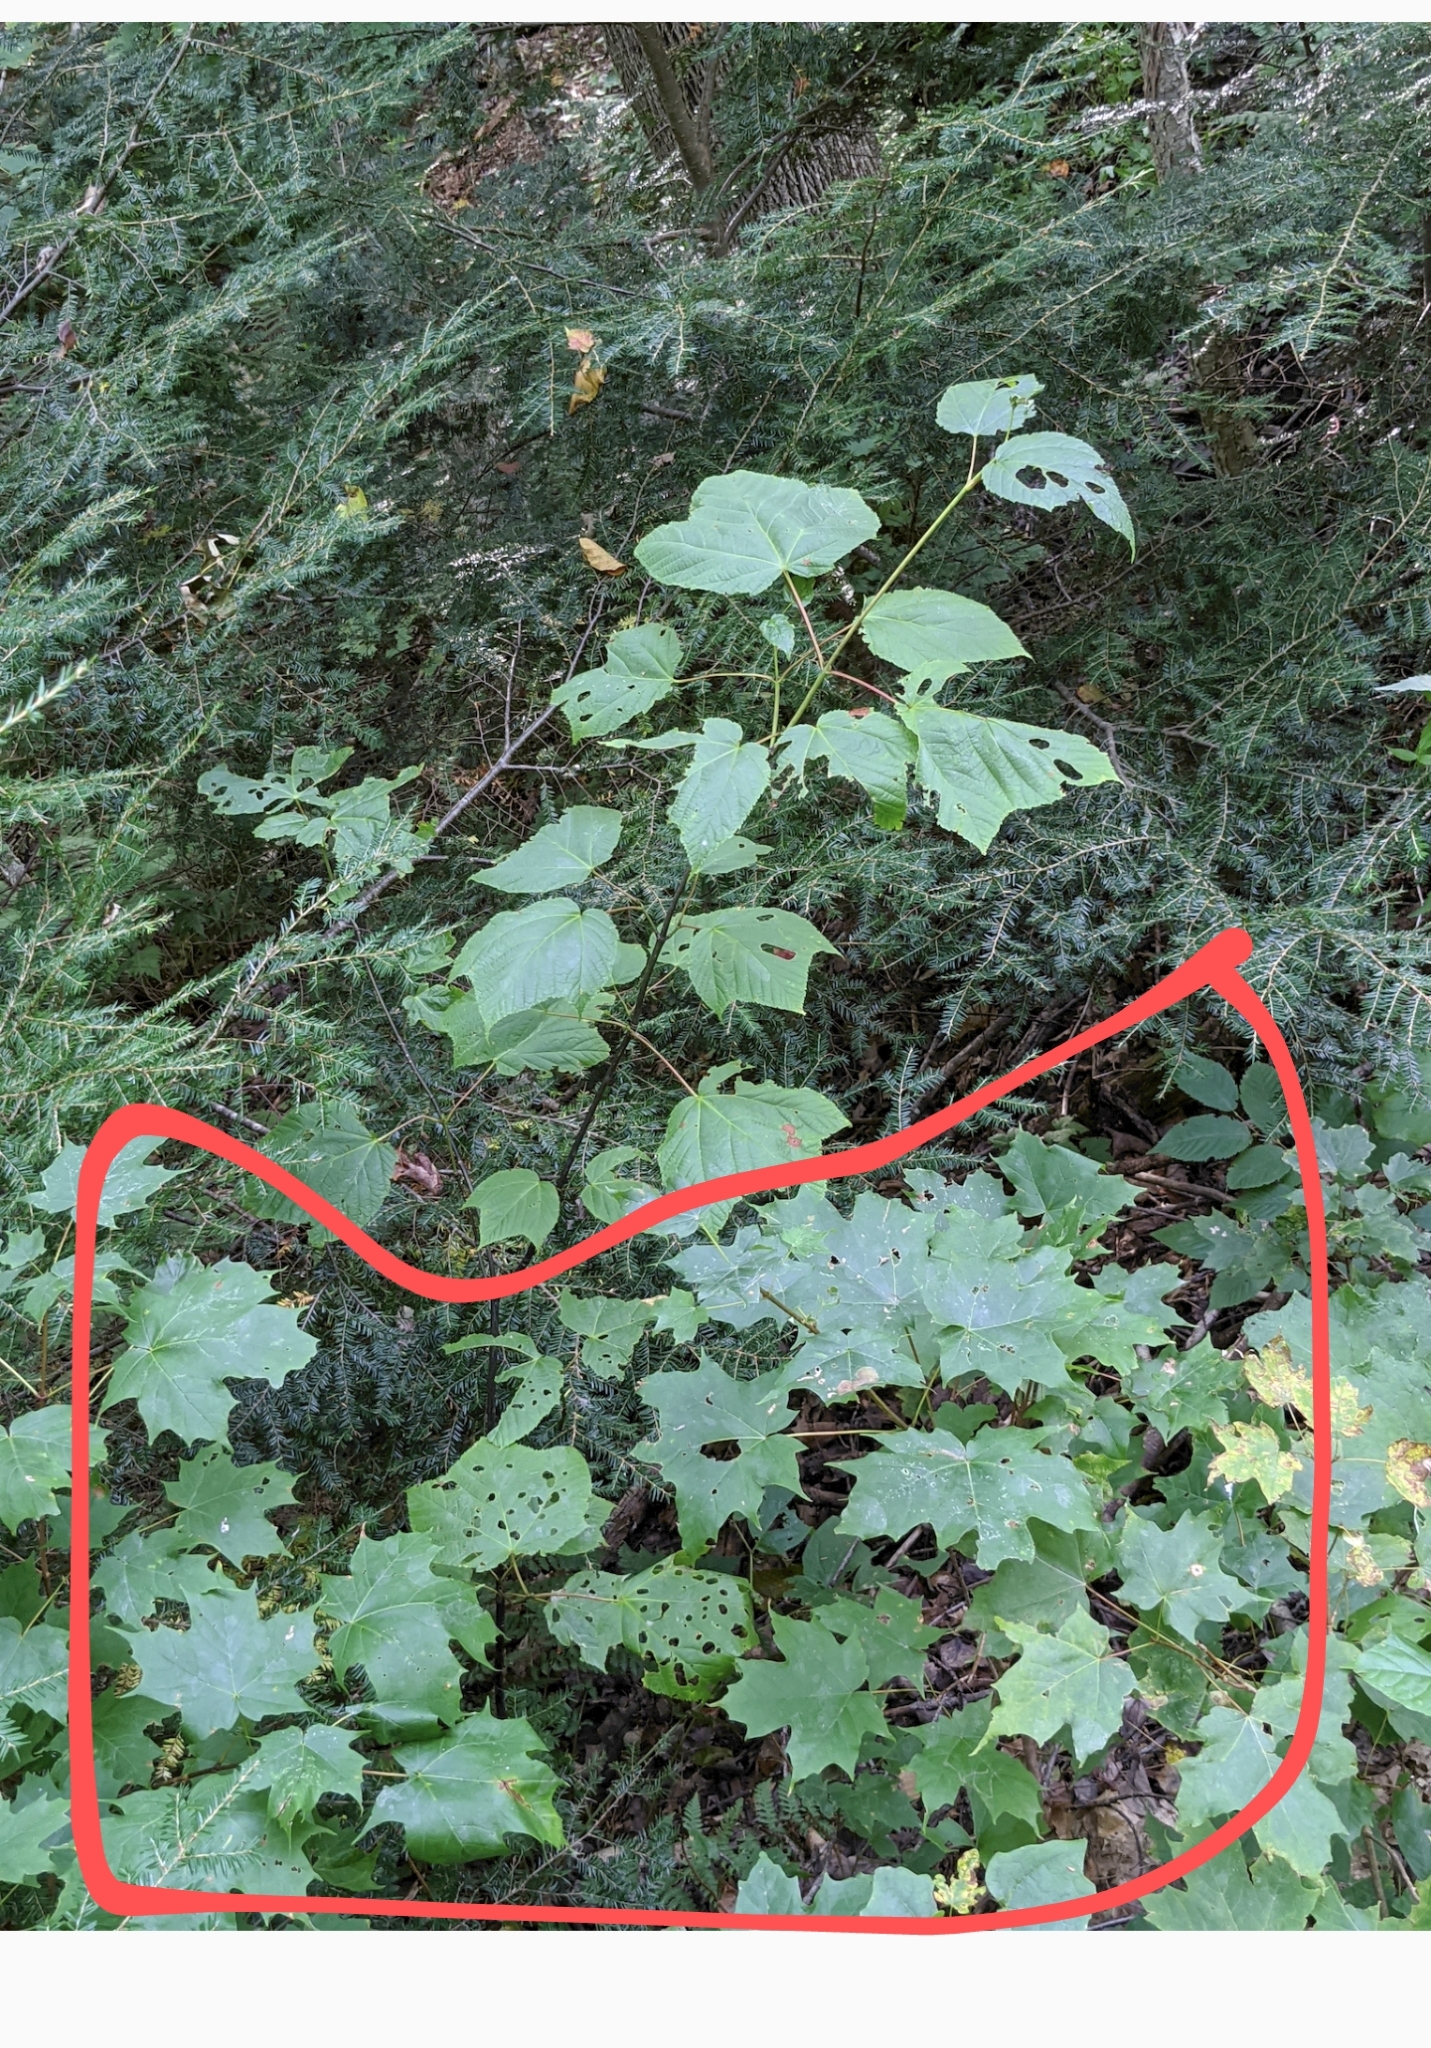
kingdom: Plantae
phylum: Tracheophyta
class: Magnoliopsida
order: Sapindales
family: Sapindaceae
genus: Acer
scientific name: Acer saccharum
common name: Sugar maple
